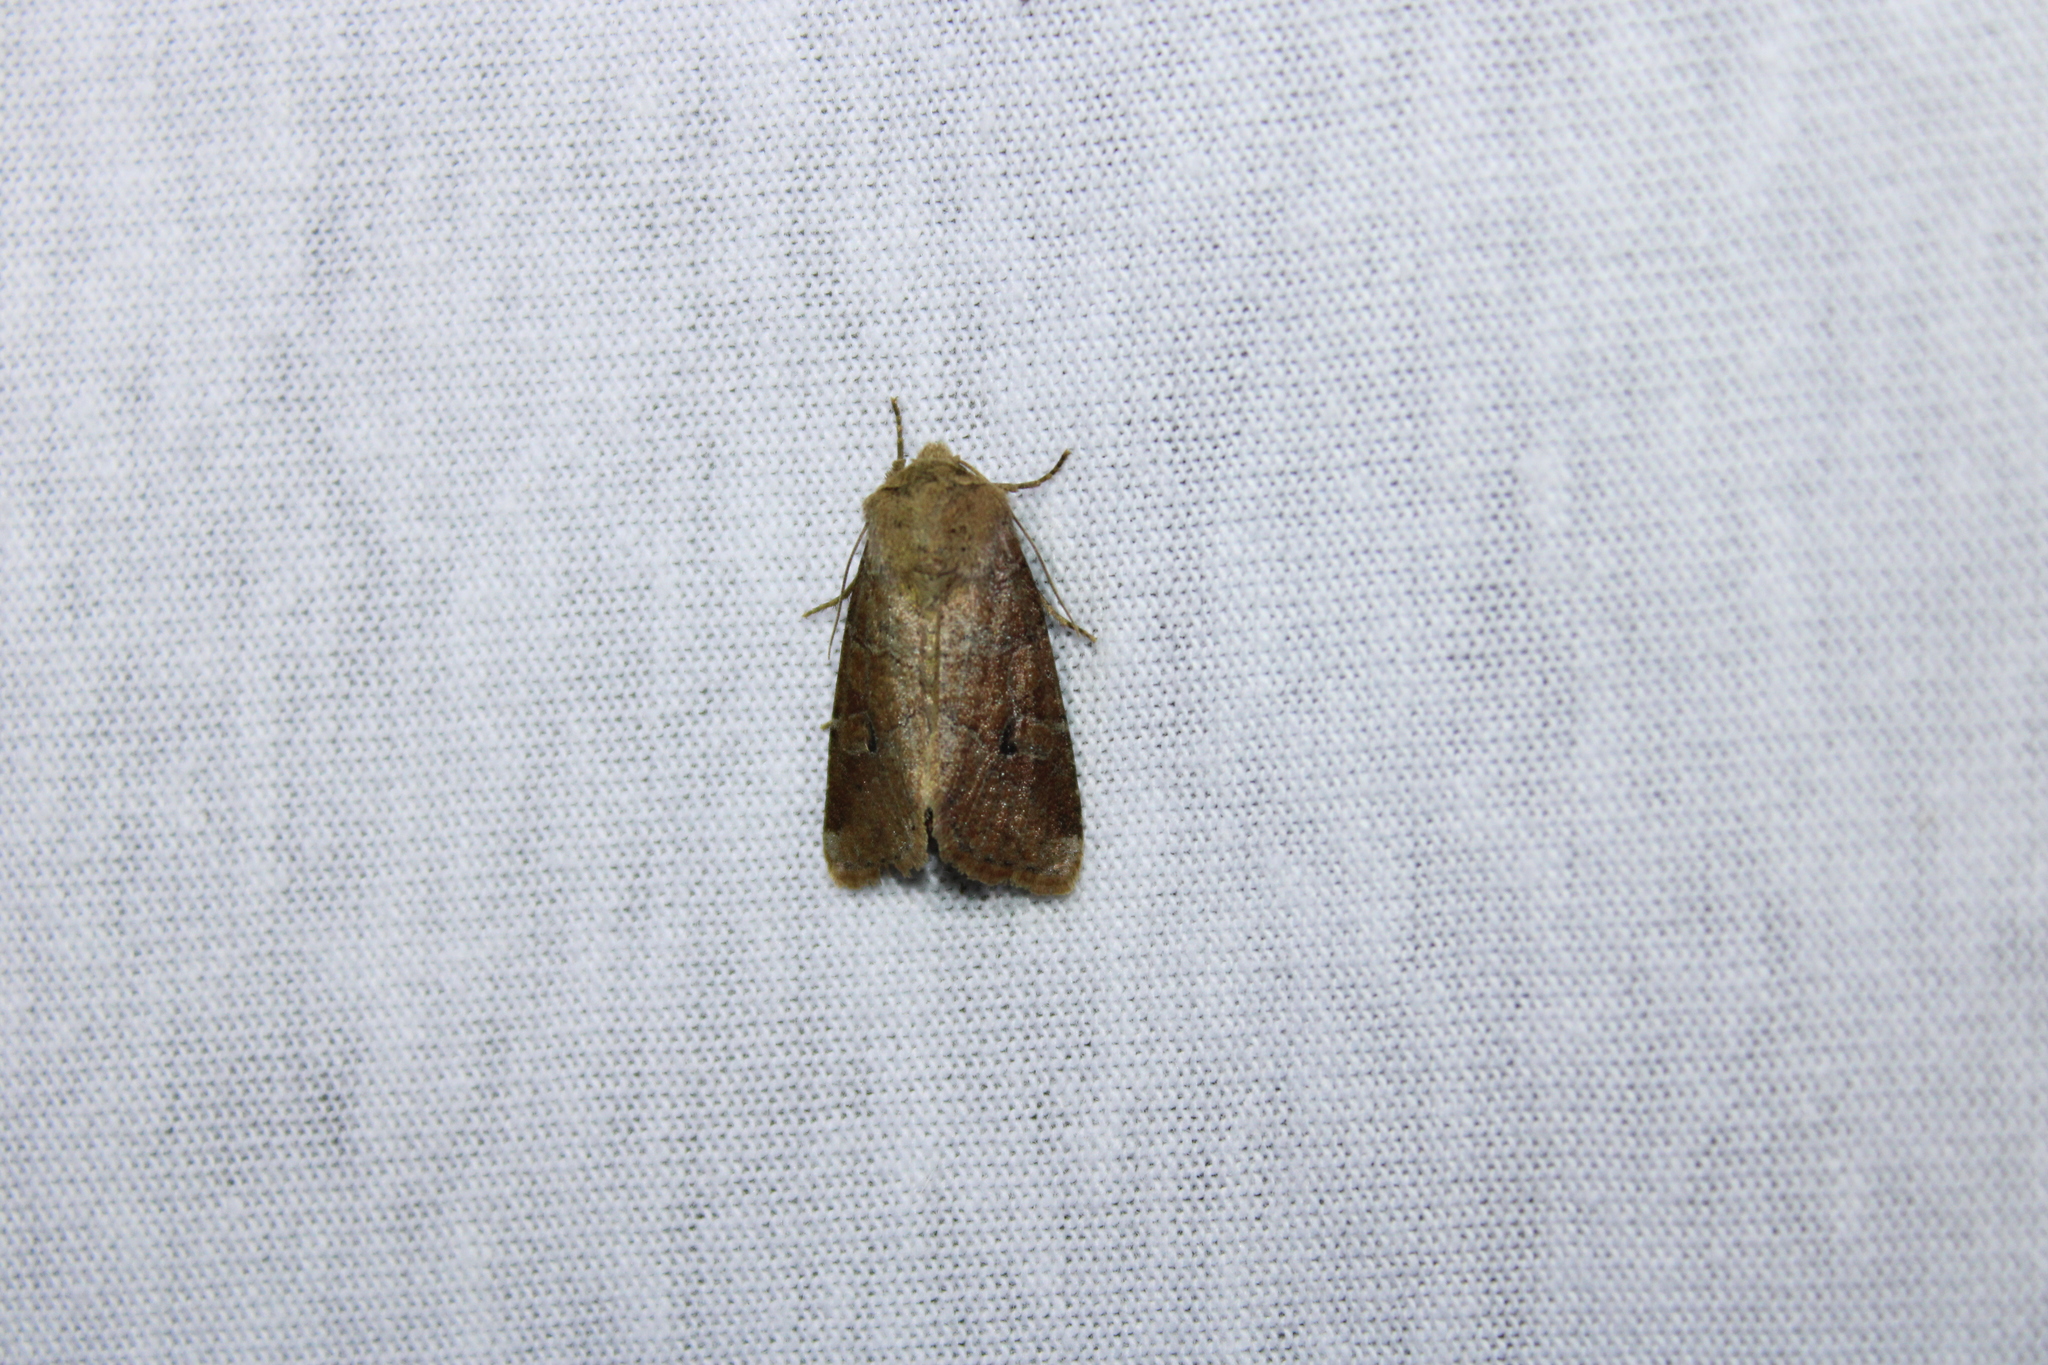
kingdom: Animalia
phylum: Arthropoda
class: Insecta
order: Lepidoptera
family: Noctuidae
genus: Crocigrapha
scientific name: Crocigrapha normani
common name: Norman's quaker
